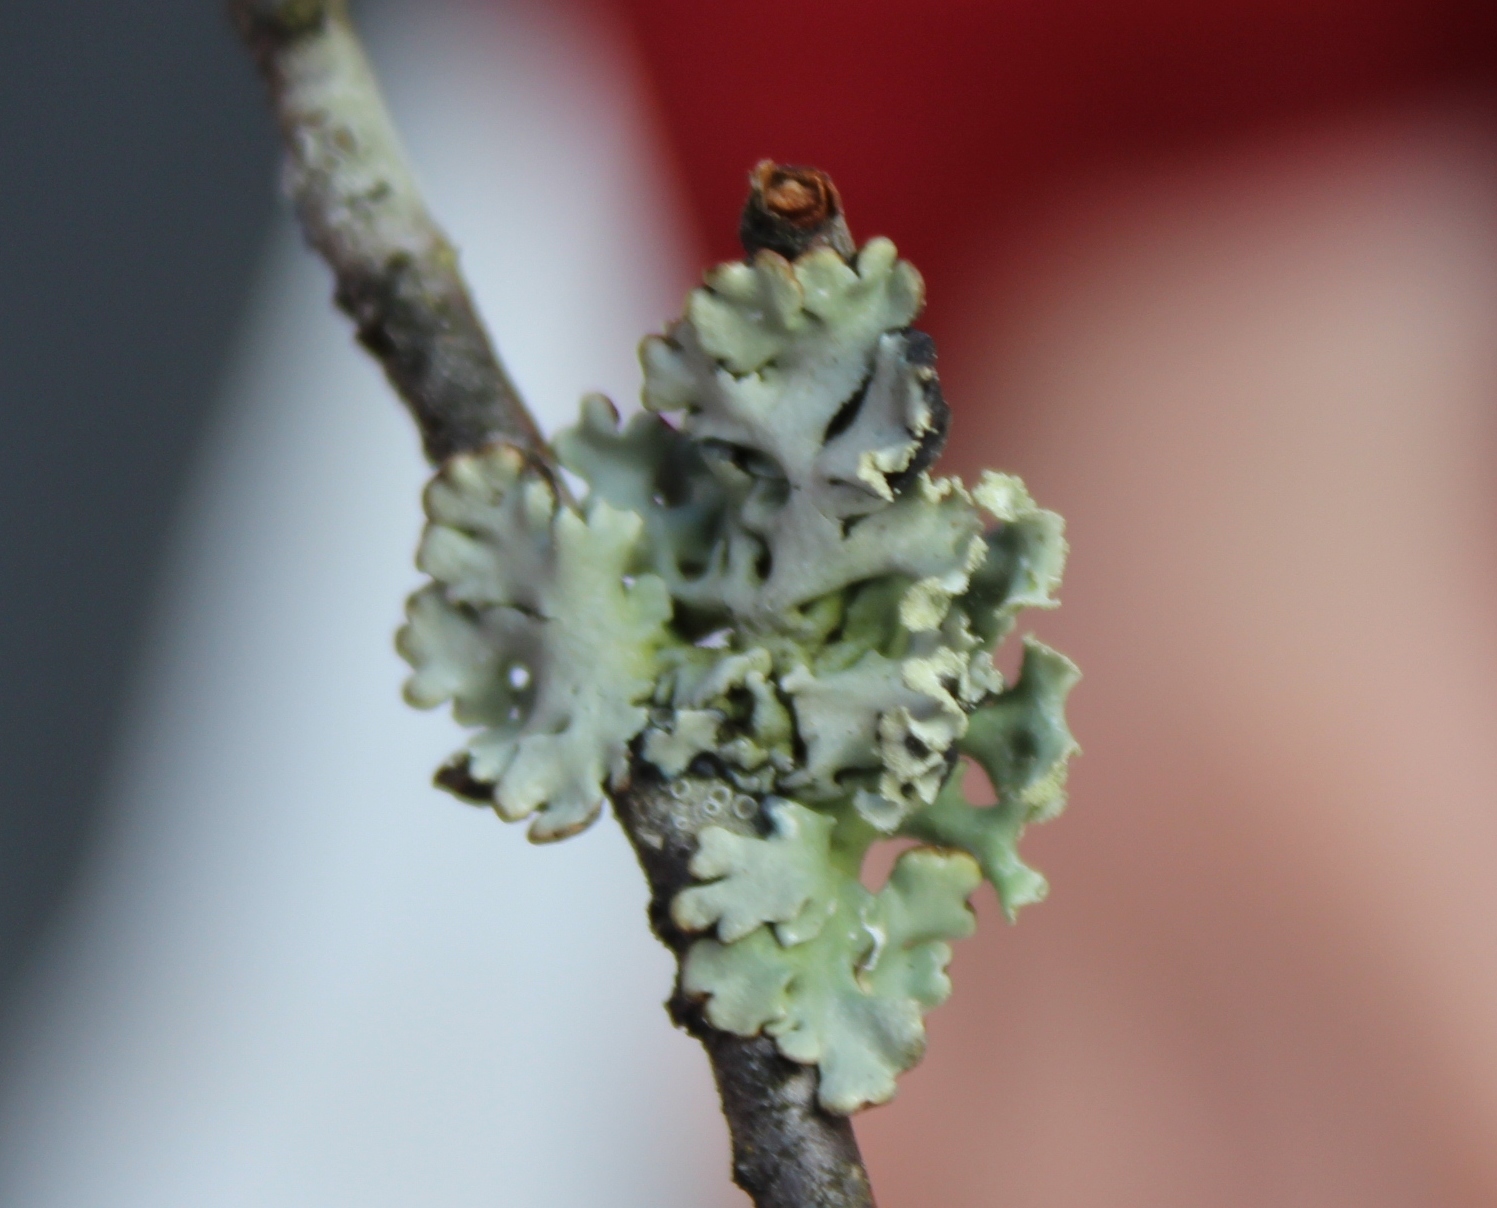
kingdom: Fungi
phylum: Ascomycota
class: Lecanoromycetes
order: Lecanorales
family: Parmeliaceae
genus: Hypogymnia
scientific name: Hypogymnia physodes
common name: Dark crottle
